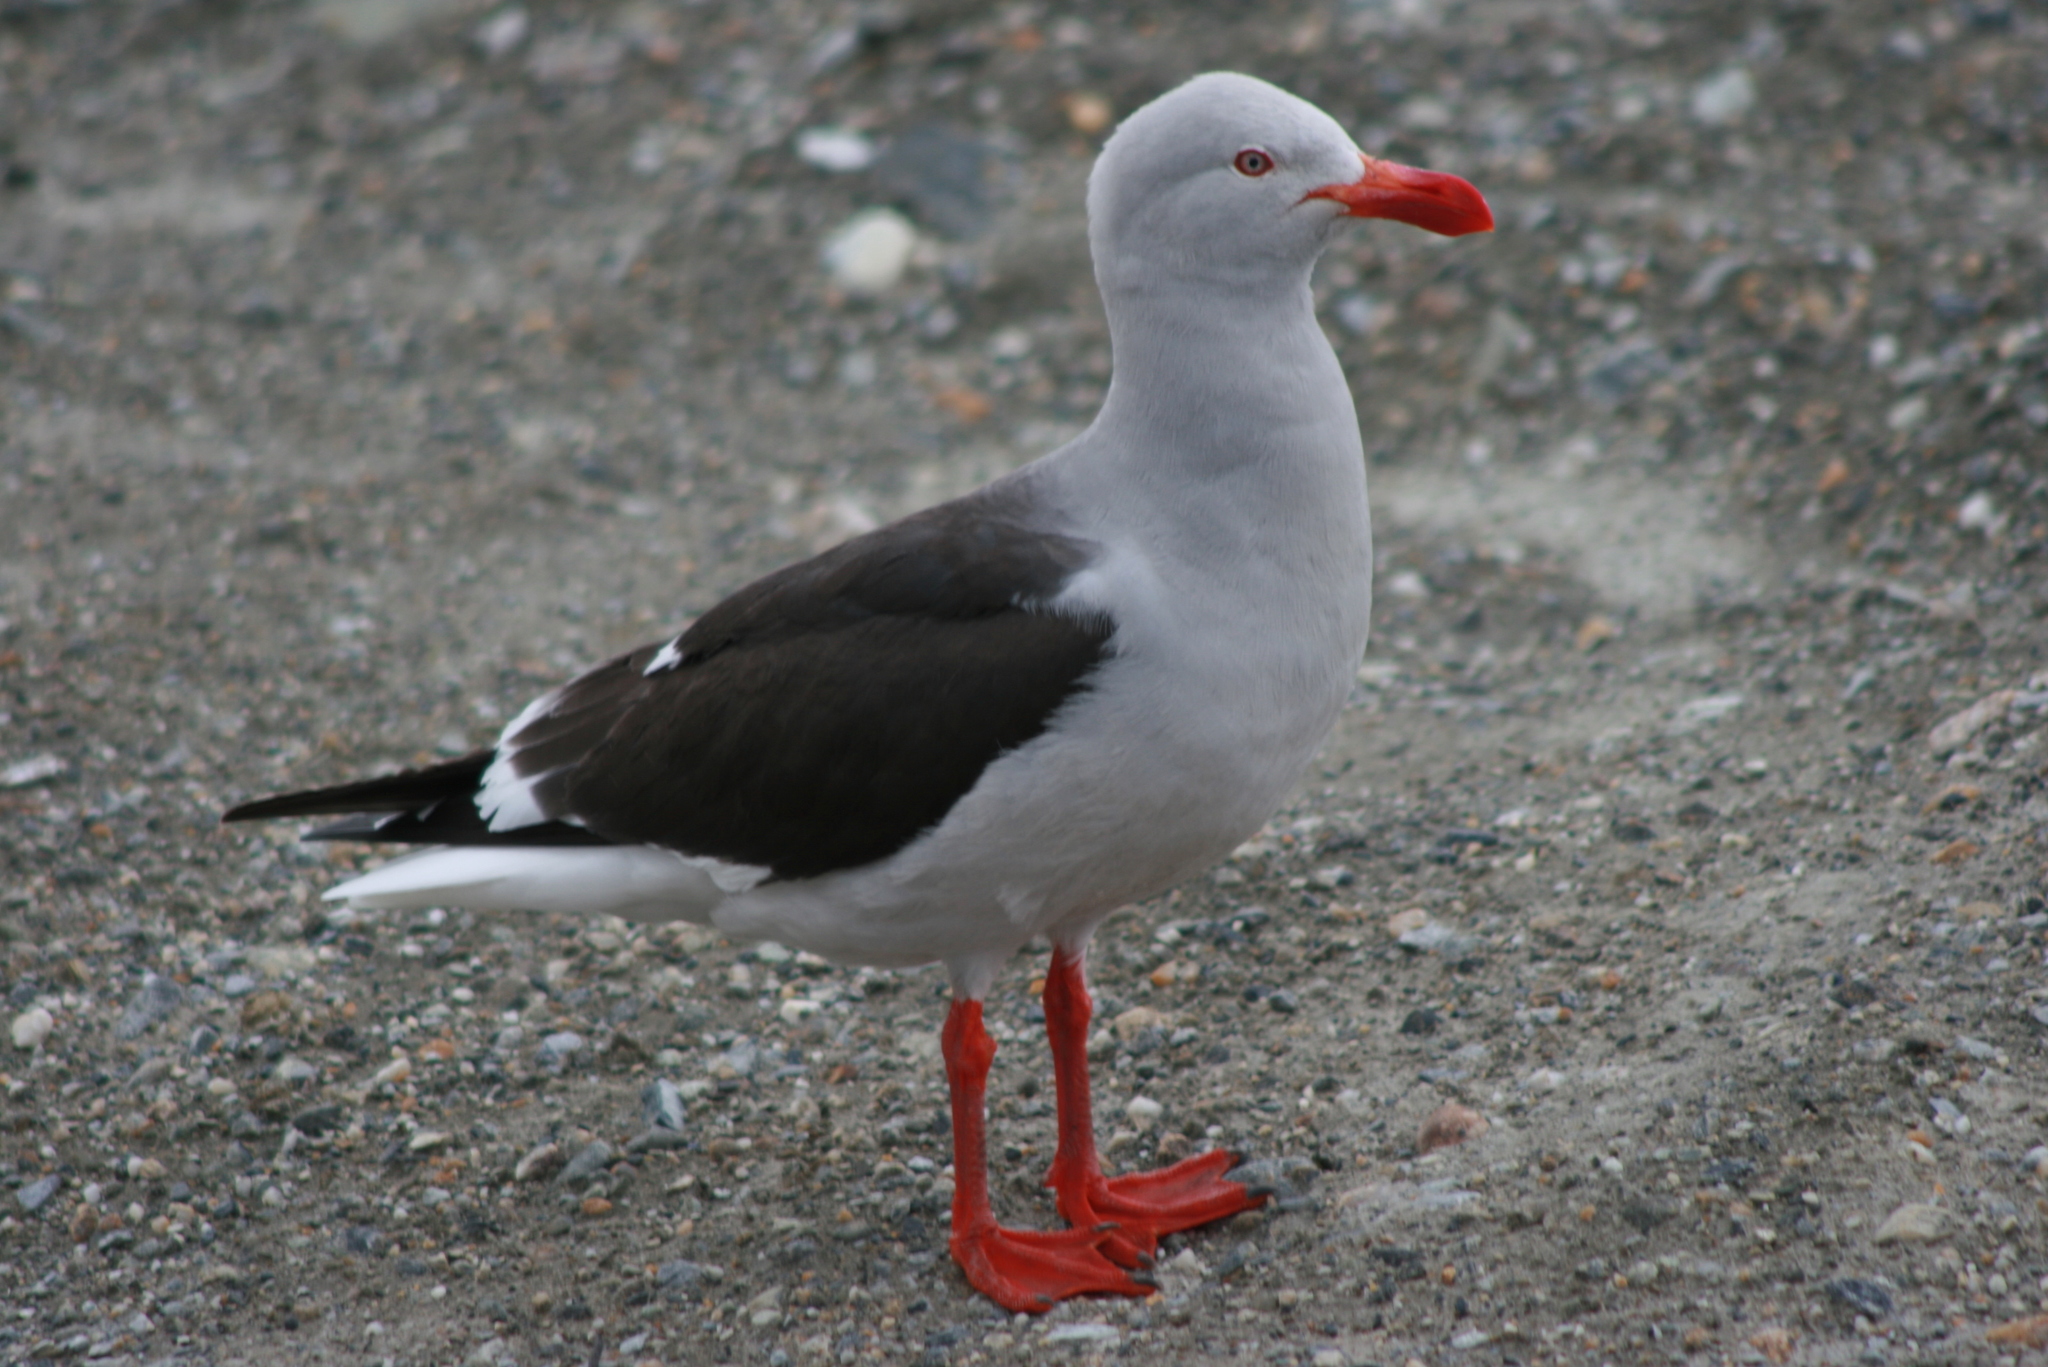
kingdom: Animalia
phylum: Chordata
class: Aves
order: Charadriiformes
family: Laridae
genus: Leucophaeus
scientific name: Leucophaeus scoresbii
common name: Dolphin gull
